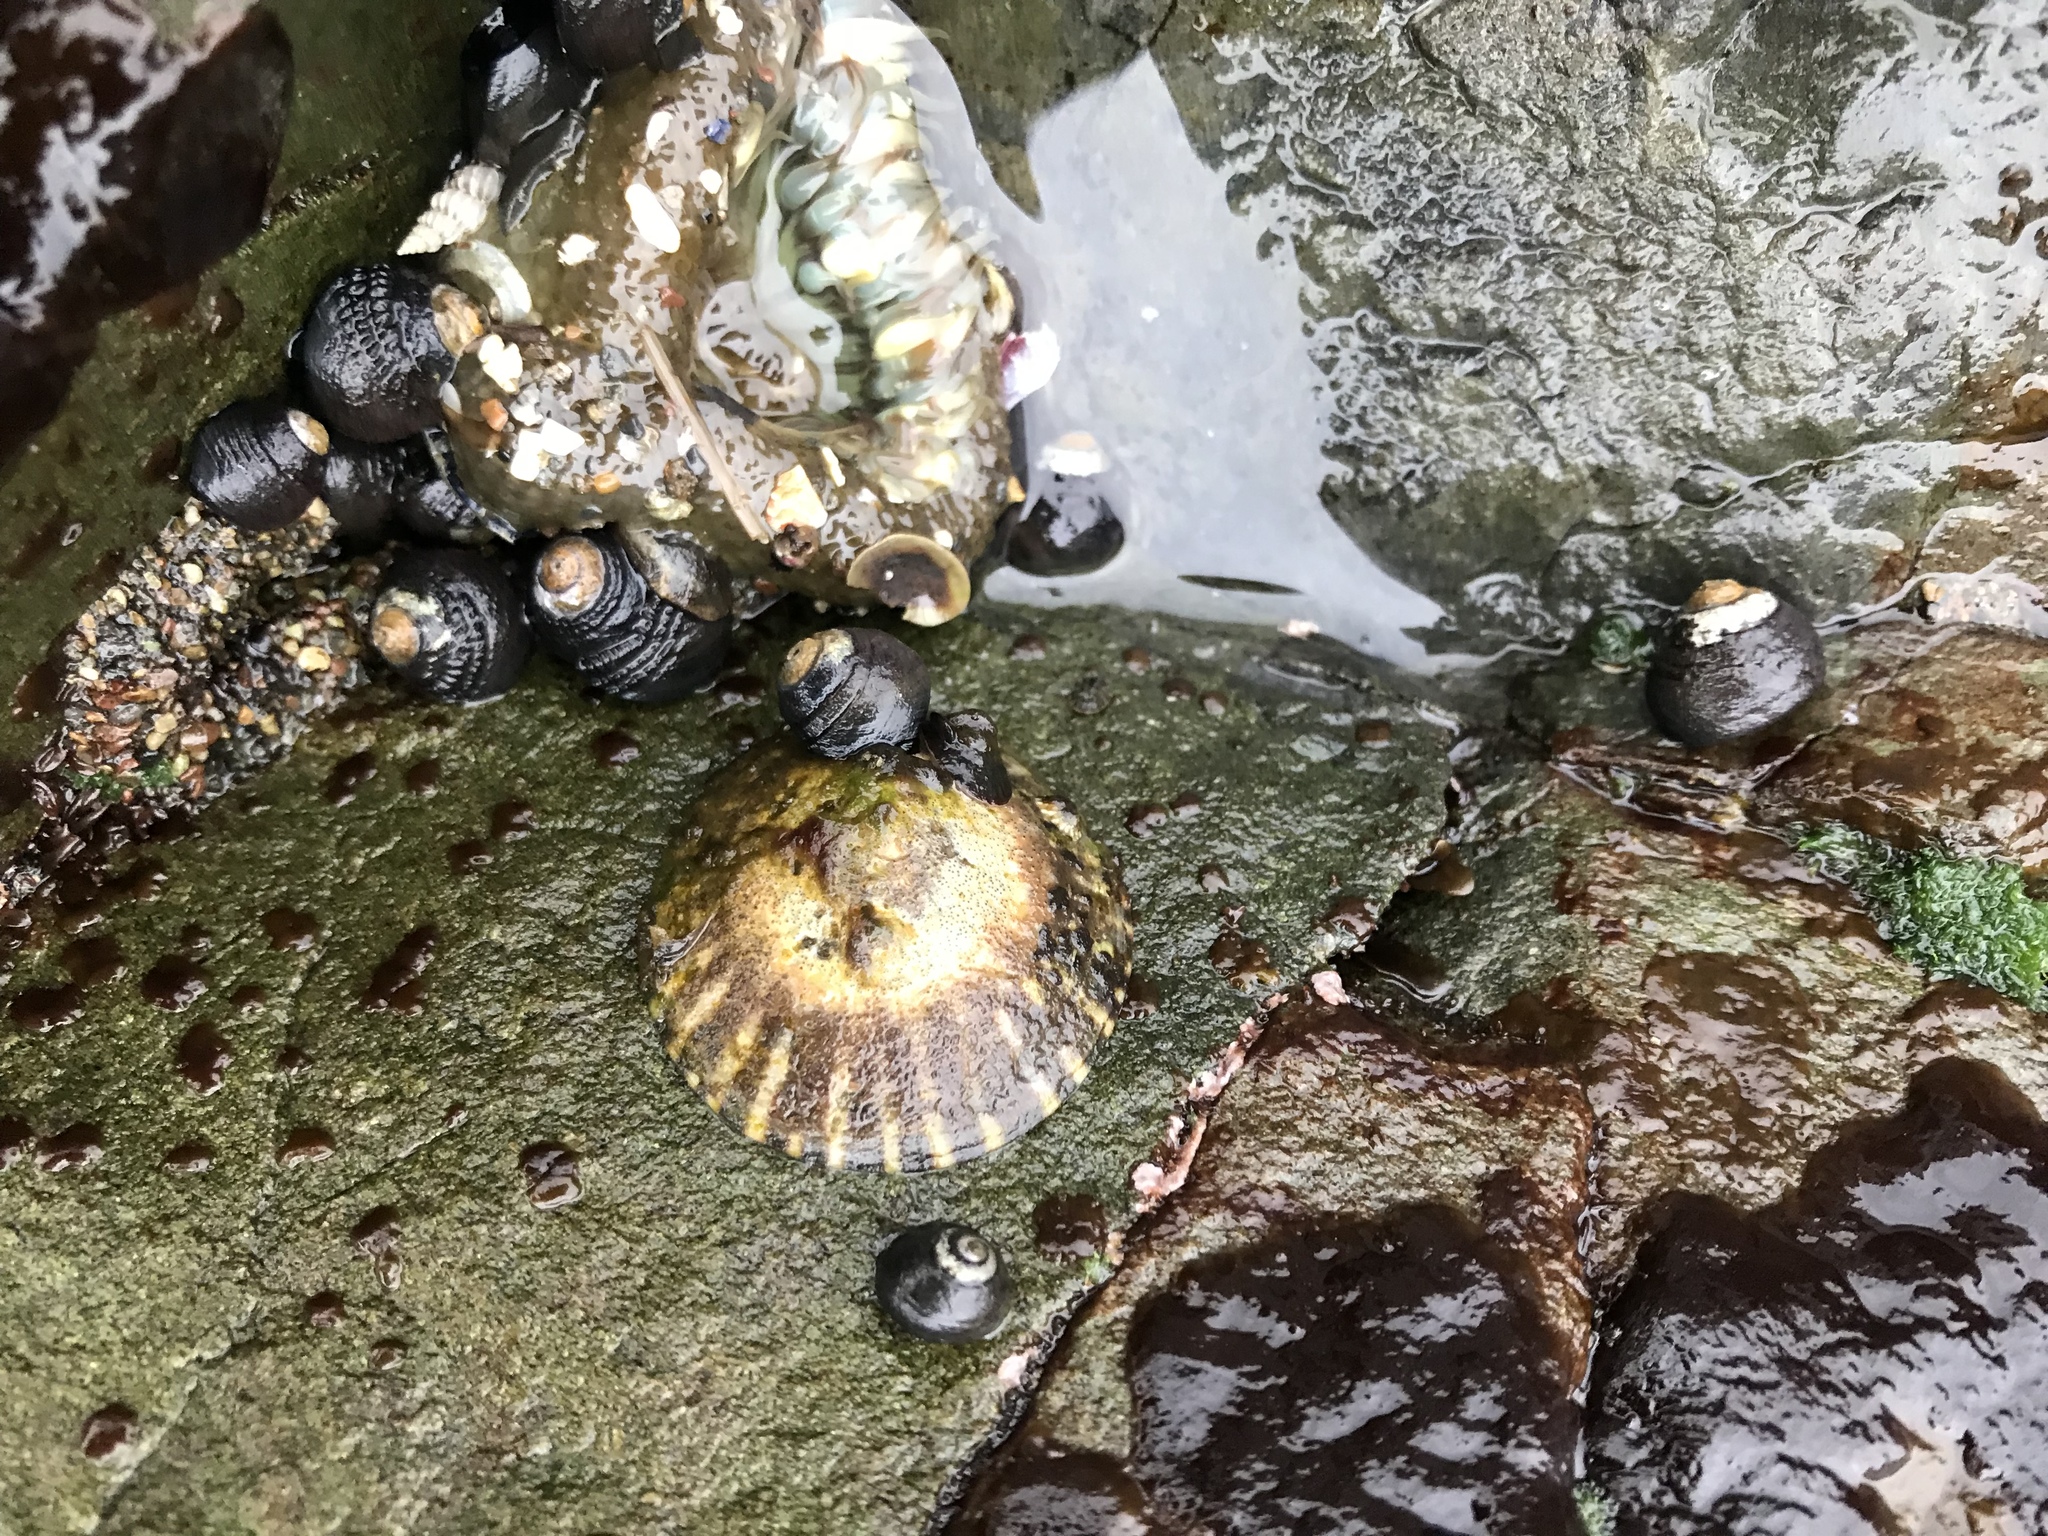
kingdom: Animalia
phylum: Mollusca
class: Gastropoda
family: Lottiidae
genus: Lottia
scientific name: Lottia gigantea
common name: Owl limpet
